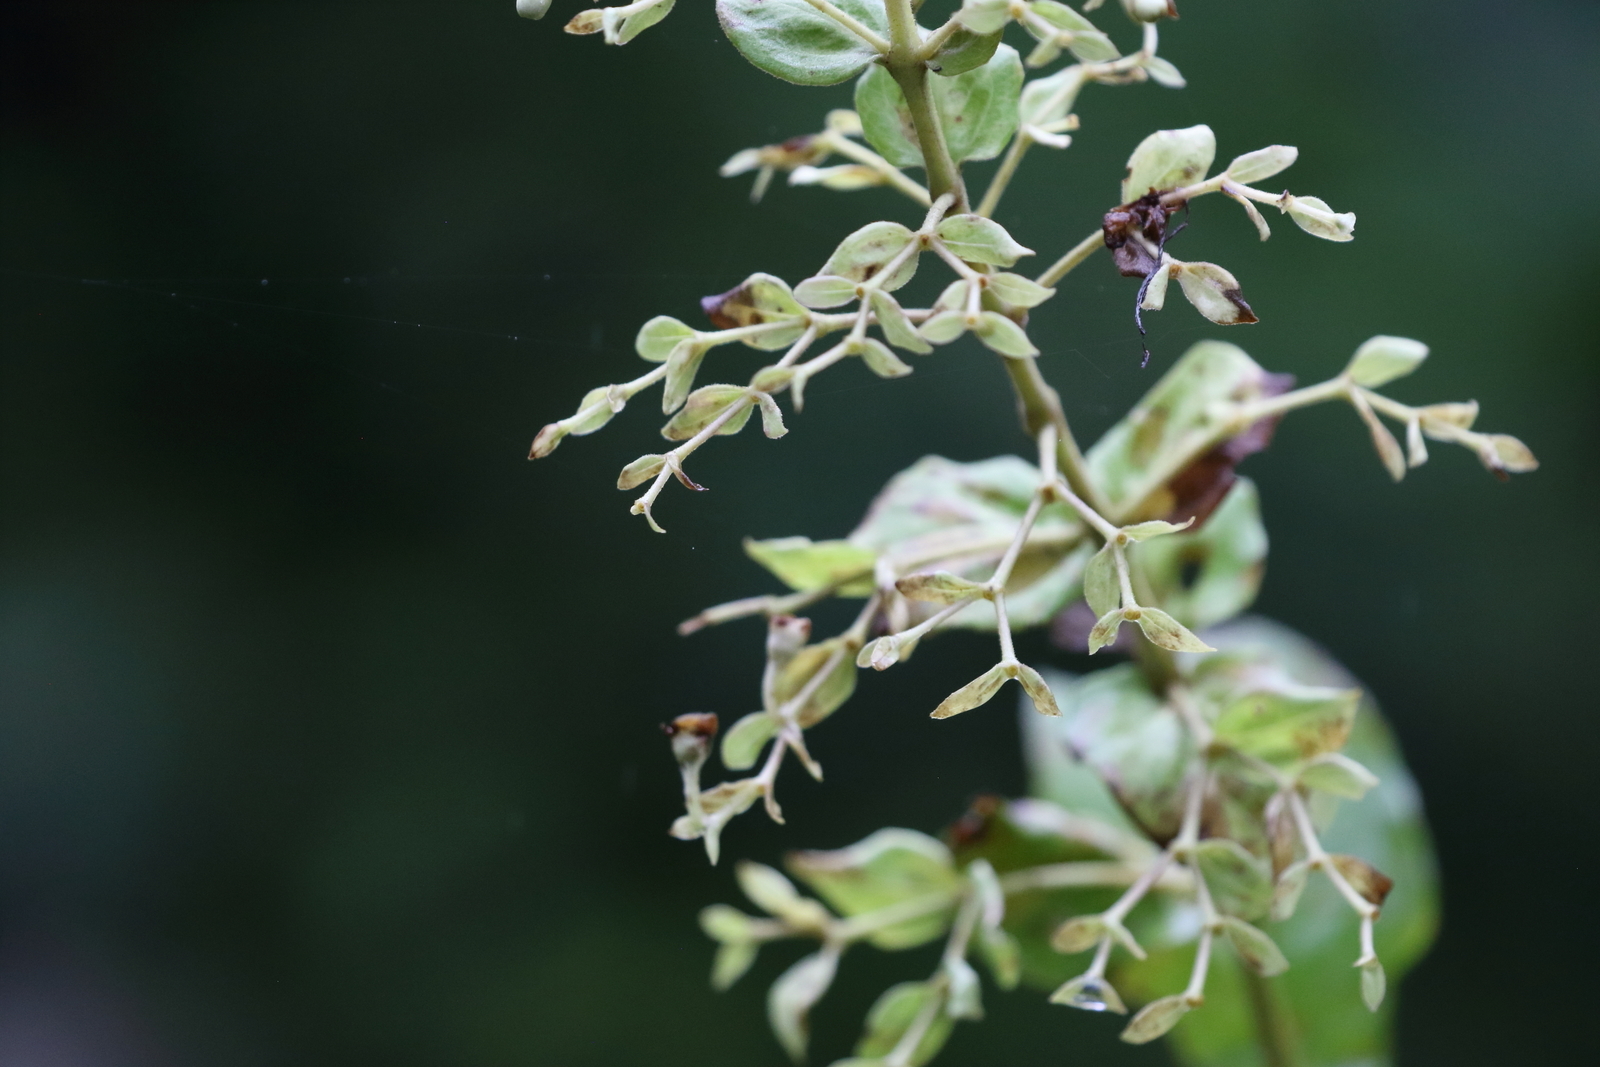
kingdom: Plantae
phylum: Tracheophyta
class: Magnoliopsida
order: Lamiales
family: Lamiaceae
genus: Rotheca
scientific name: Rotheca serrata
